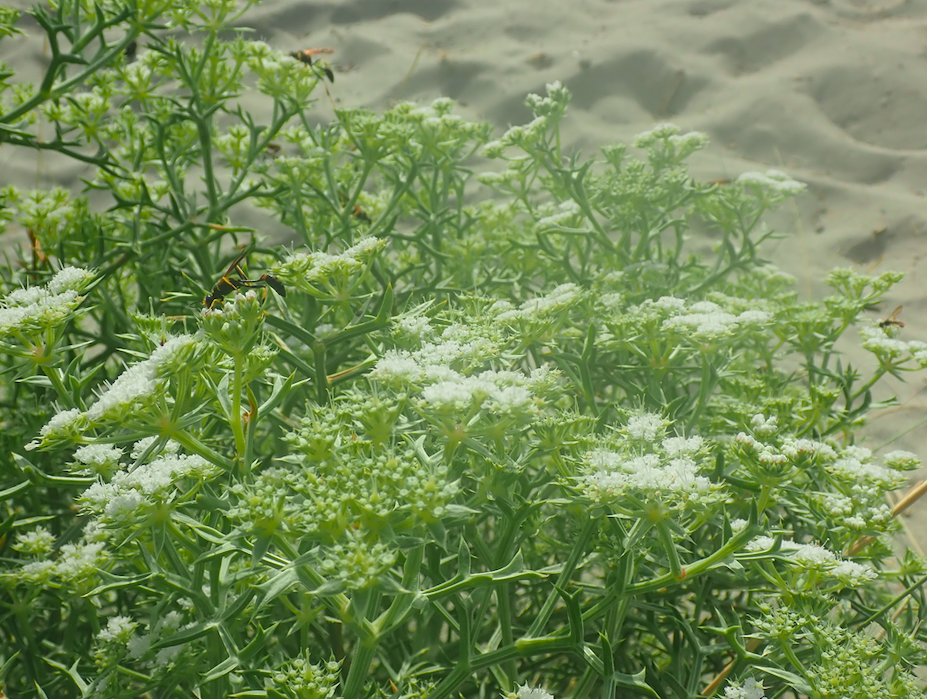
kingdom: Plantae
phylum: Tracheophyta
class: Magnoliopsida
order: Apiales
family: Apiaceae
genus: Echinophora
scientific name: Echinophora spinosa
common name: Prickly samphire
